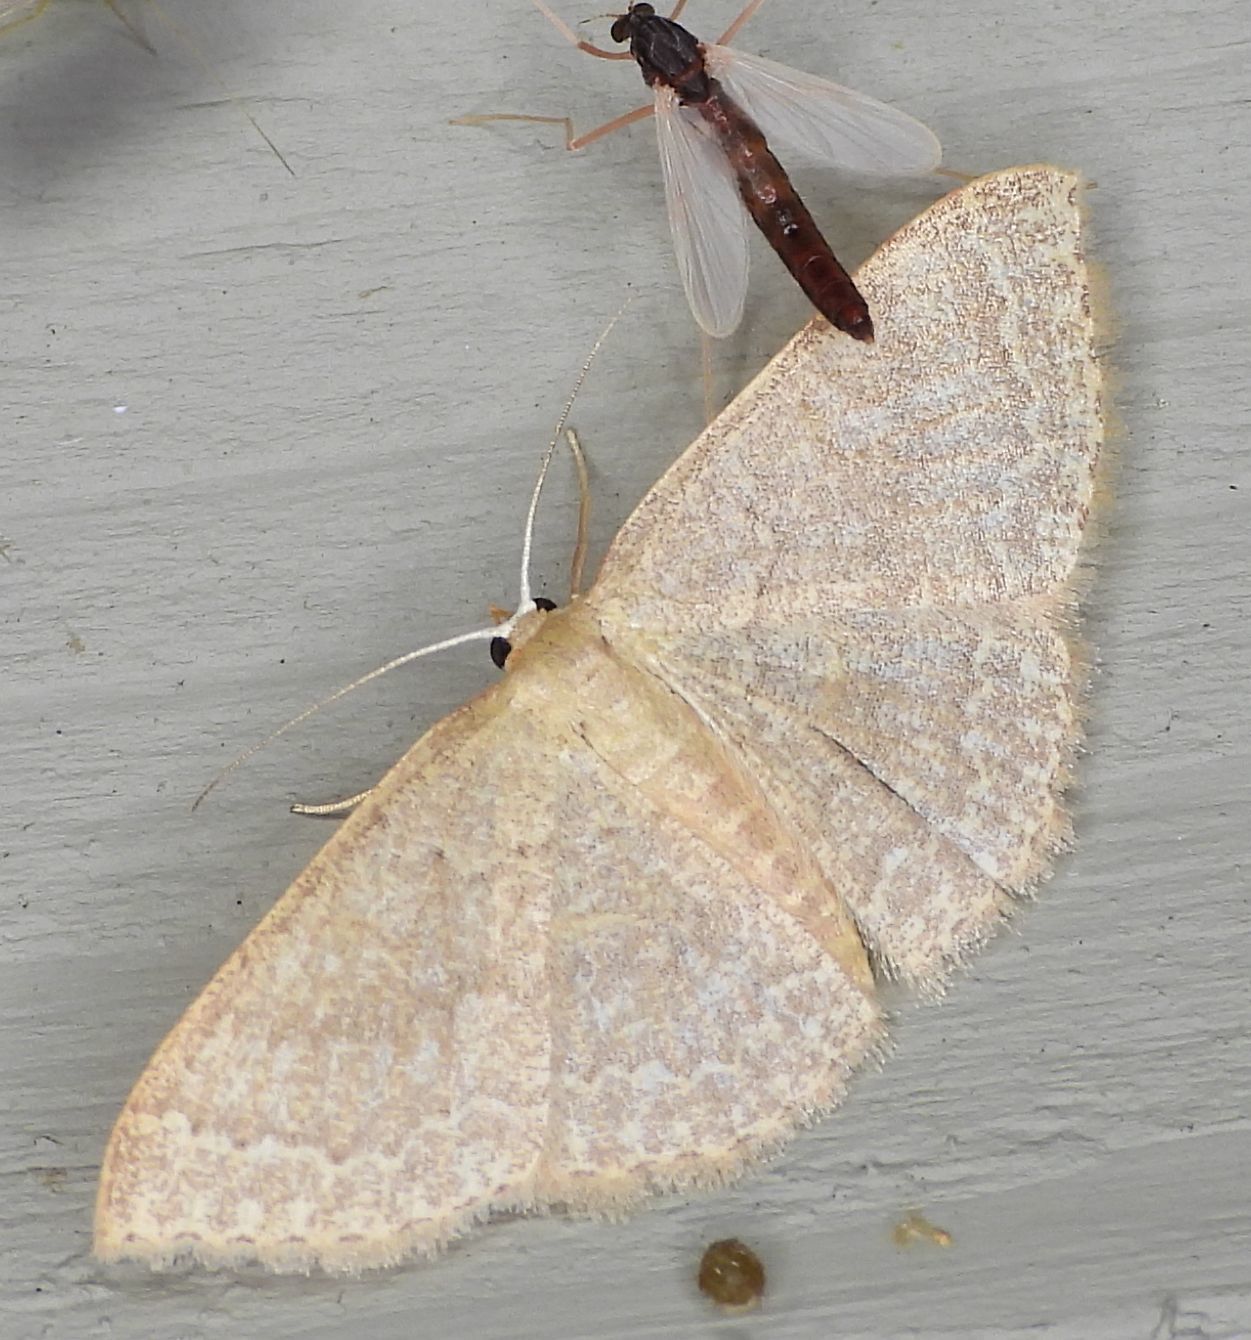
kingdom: Animalia
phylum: Arthropoda
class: Insecta
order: Lepidoptera
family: Geometridae
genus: Pleuroprucha
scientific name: Pleuroprucha insulsaria
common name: Common tan wave
